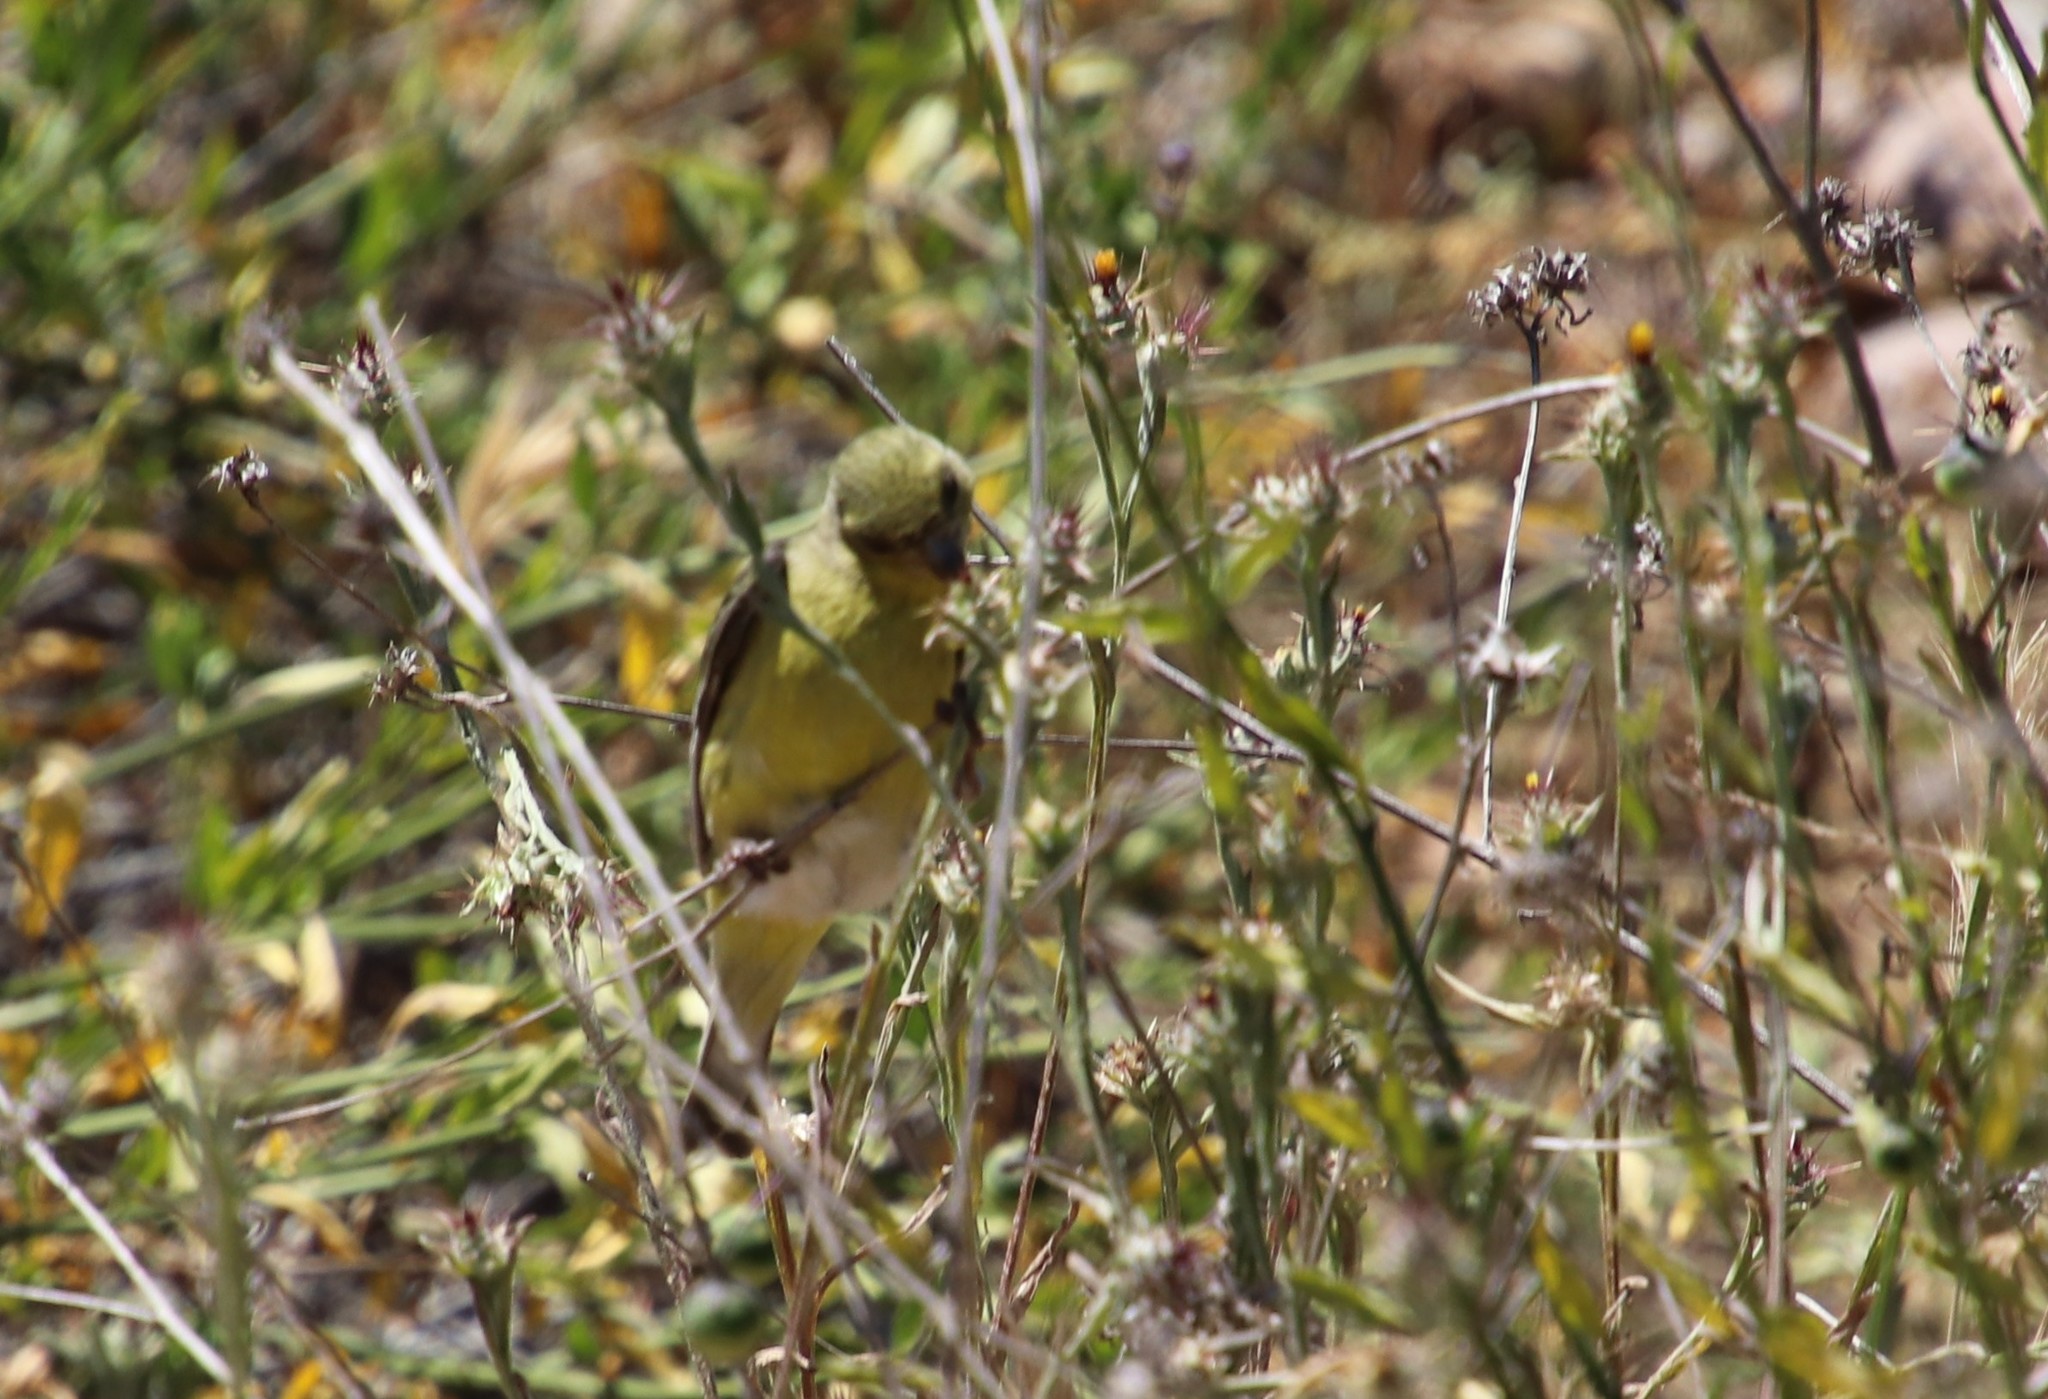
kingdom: Animalia
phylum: Chordata
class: Aves
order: Passeriformes
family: Fringillidae
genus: Spinus
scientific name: Spinus psaltria
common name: Lesser goldfinch
